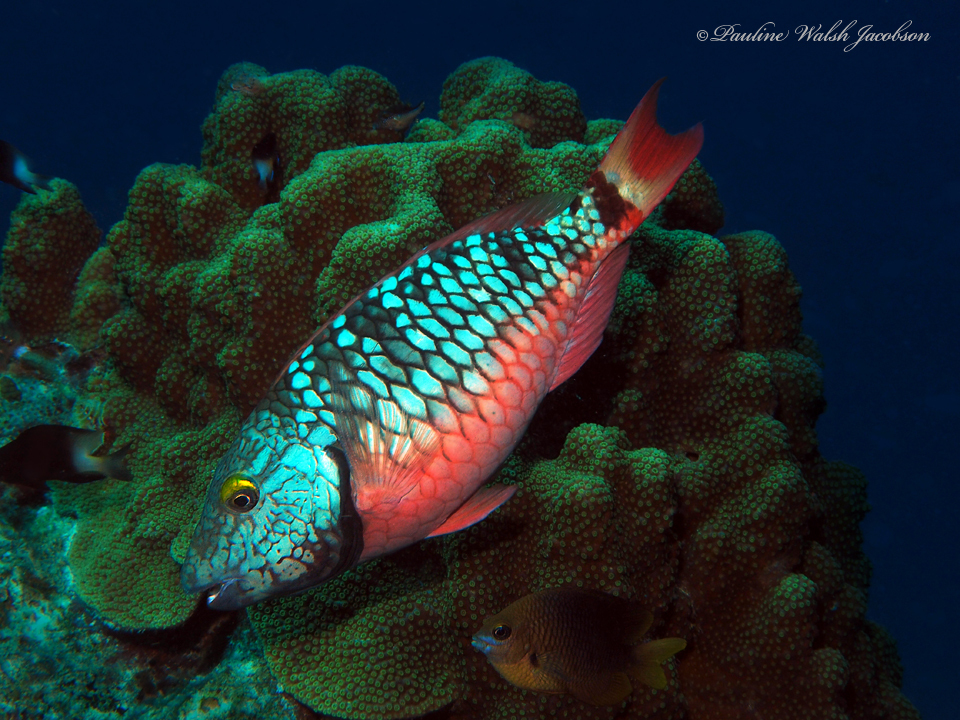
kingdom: Animalia
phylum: Chordata
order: Perciformes
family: Scaridae
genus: Sparisoma
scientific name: Sparisoma viride
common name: Stoplight parrotfish
